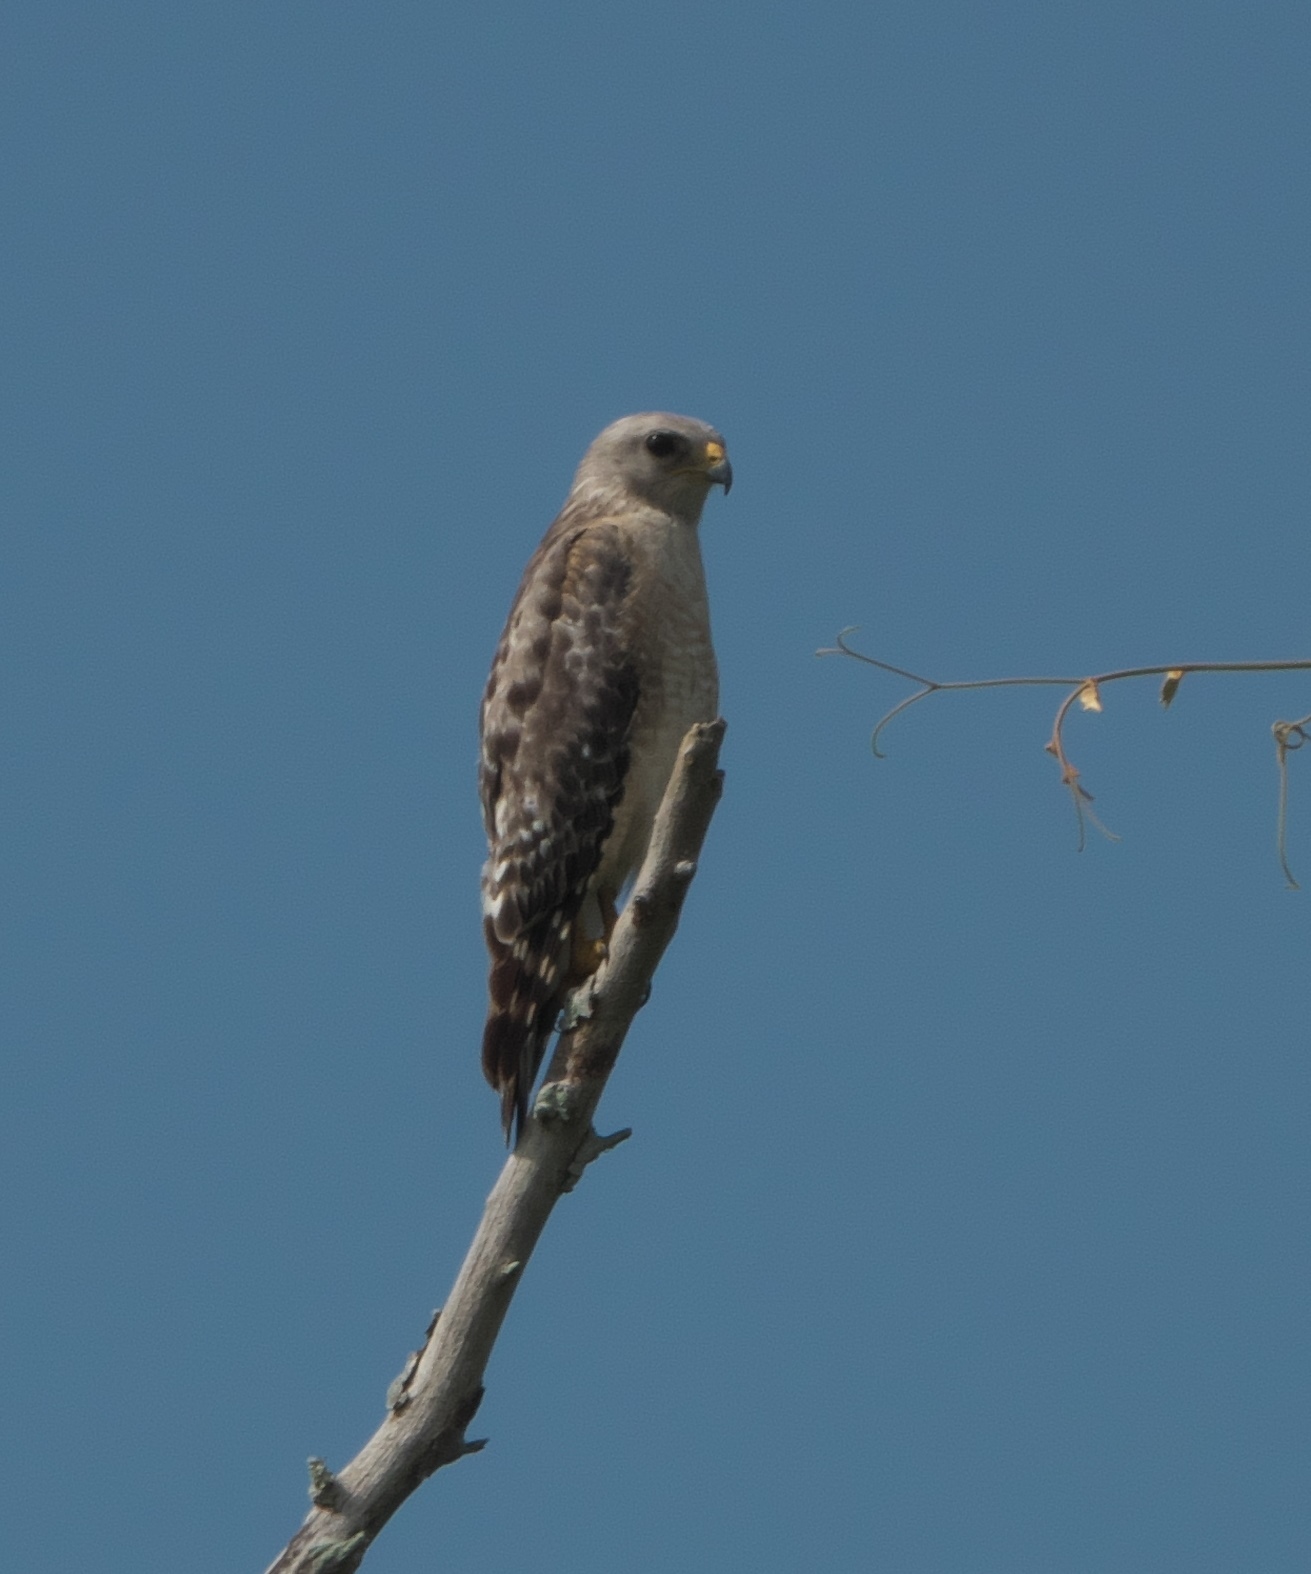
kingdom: Animalia
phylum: Chordata
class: Aves
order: Accipitriformes
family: Accipitridae
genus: Buteo
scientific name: Buteo lineatus
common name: Red-shouldered hawk
